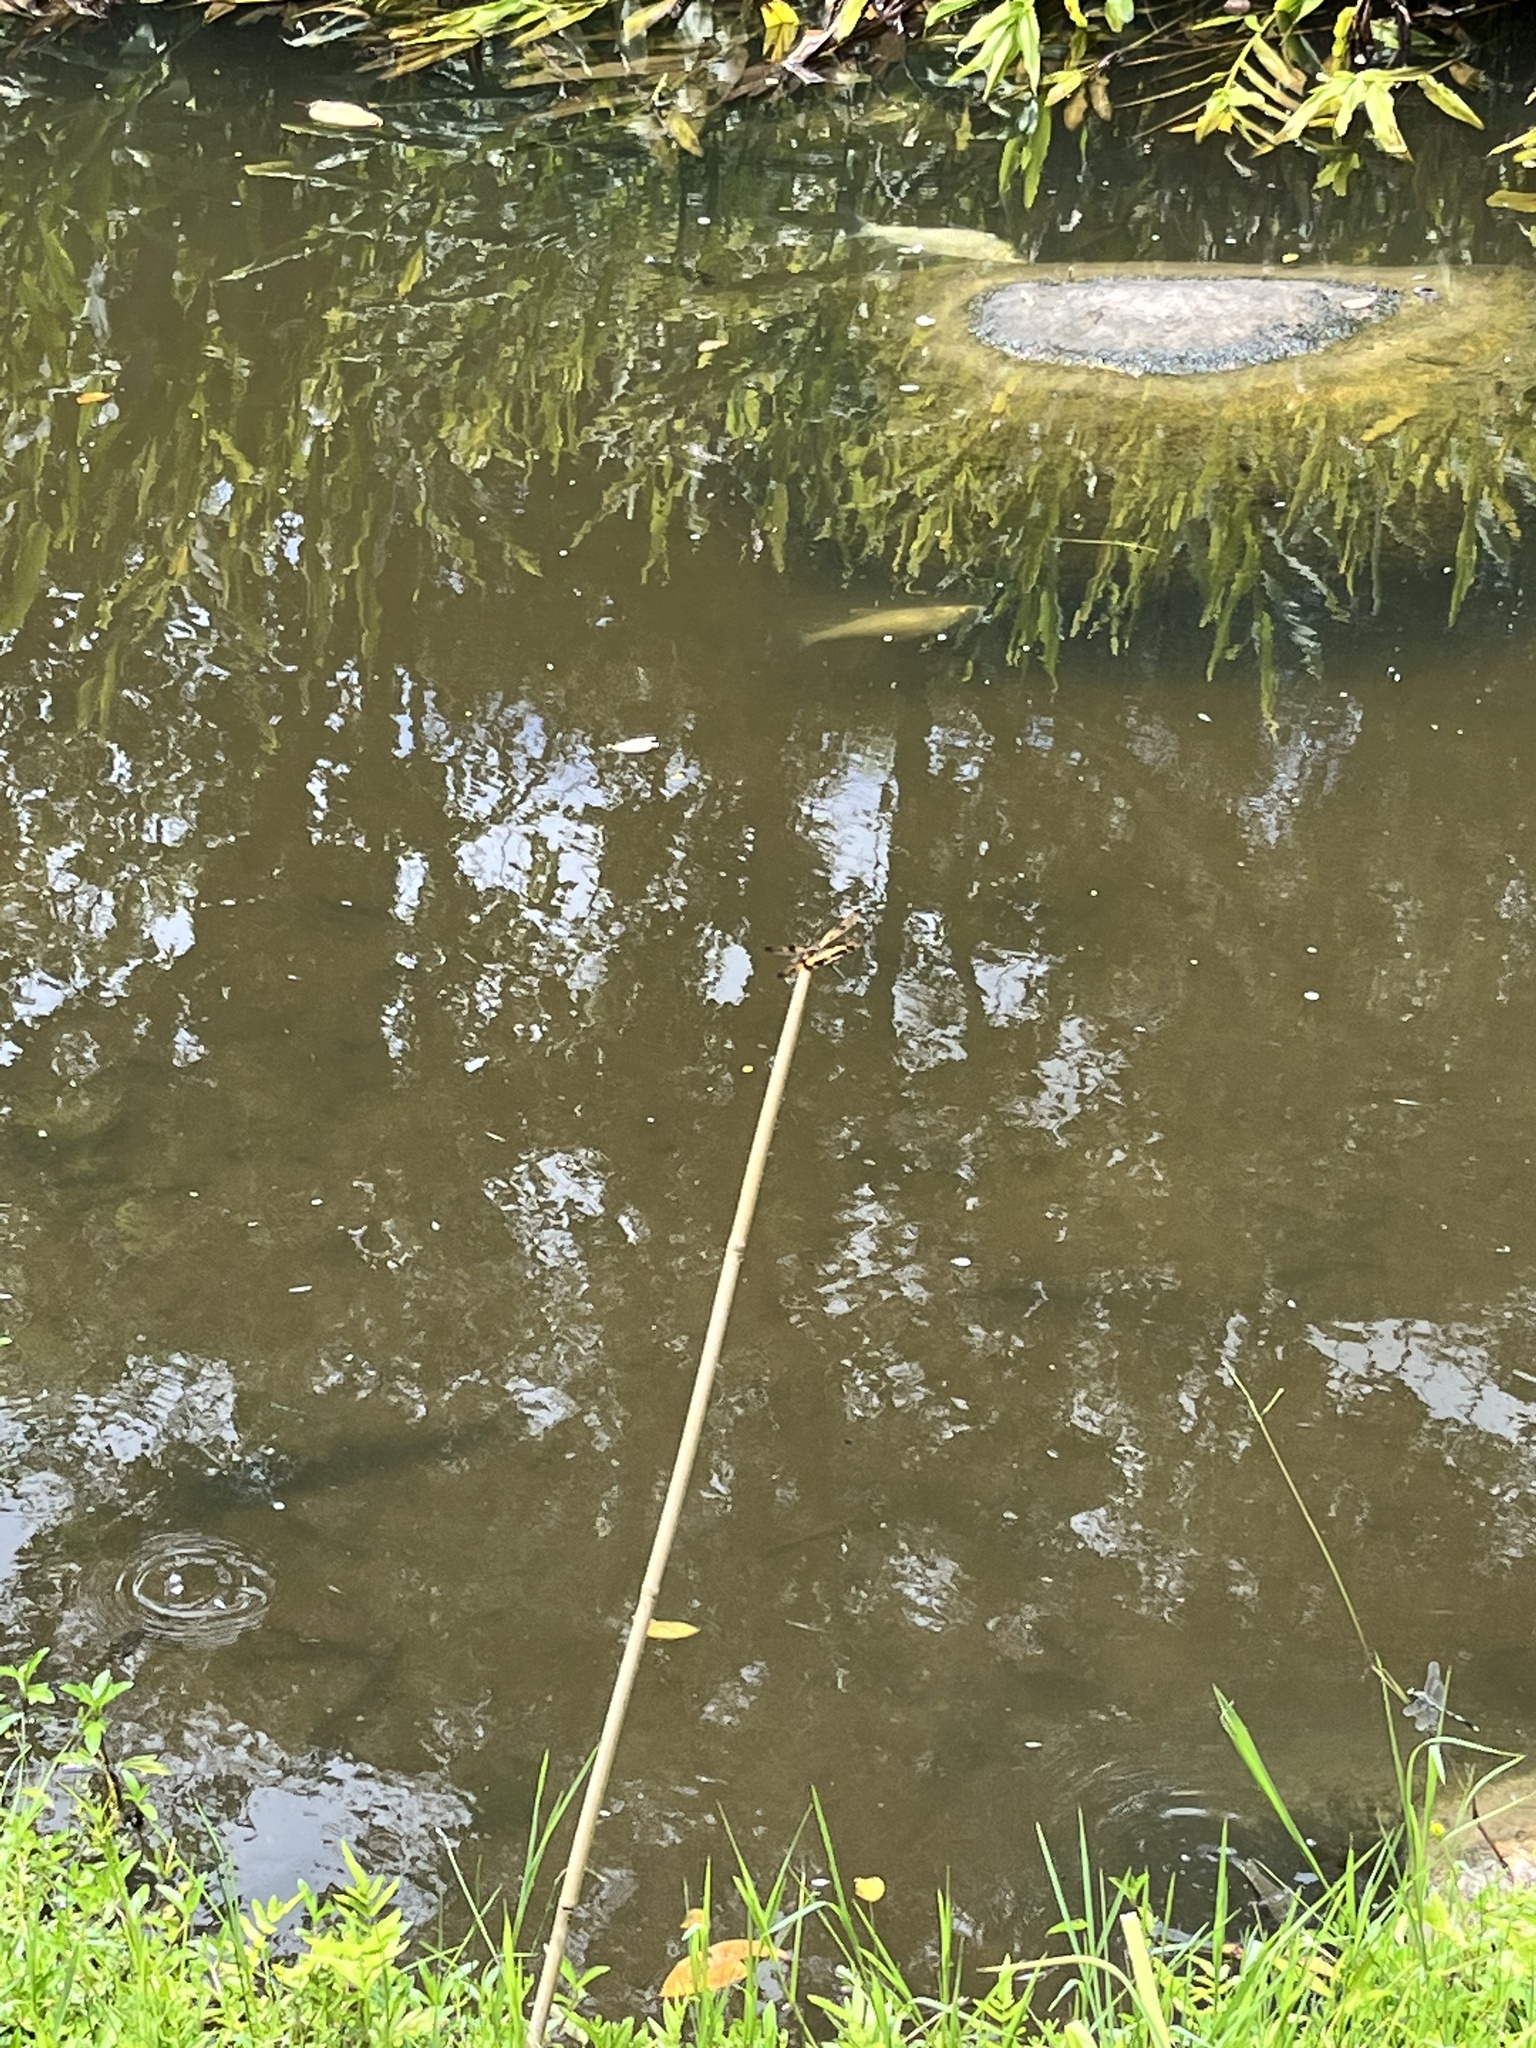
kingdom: Animalia
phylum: Arthropoda
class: Insecta
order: Odonata
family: Libellulidae
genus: Rhyothemis
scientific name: Rhyothemis variegata
